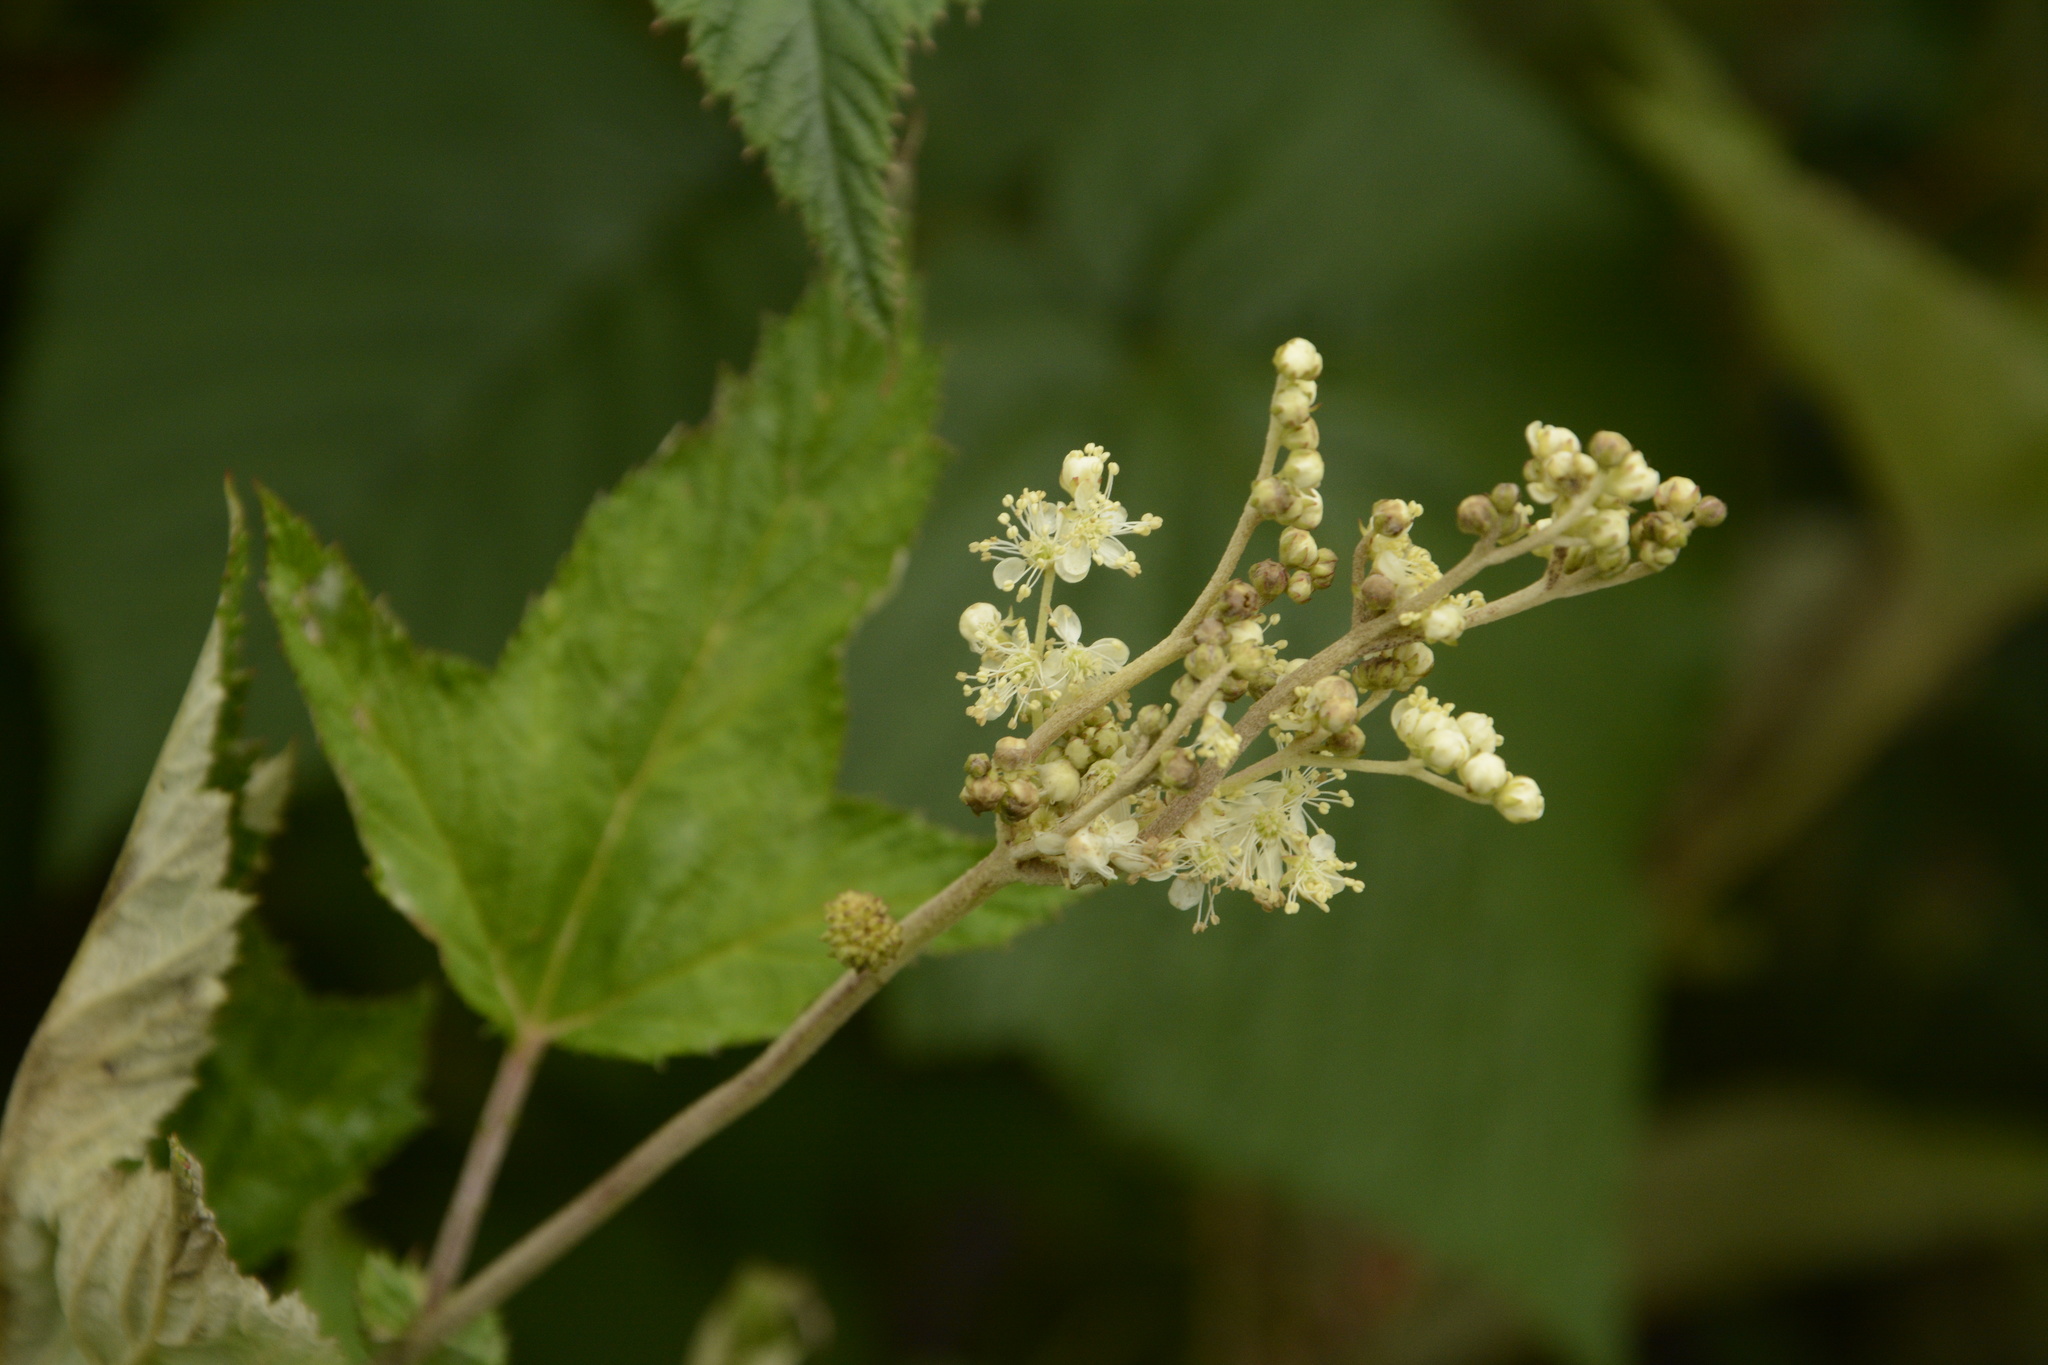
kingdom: Plantae
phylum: Tracheophyta
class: Magnoliopsida
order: Rosales
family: Rosaceae
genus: Filipendula
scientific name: Filipendula vestita
